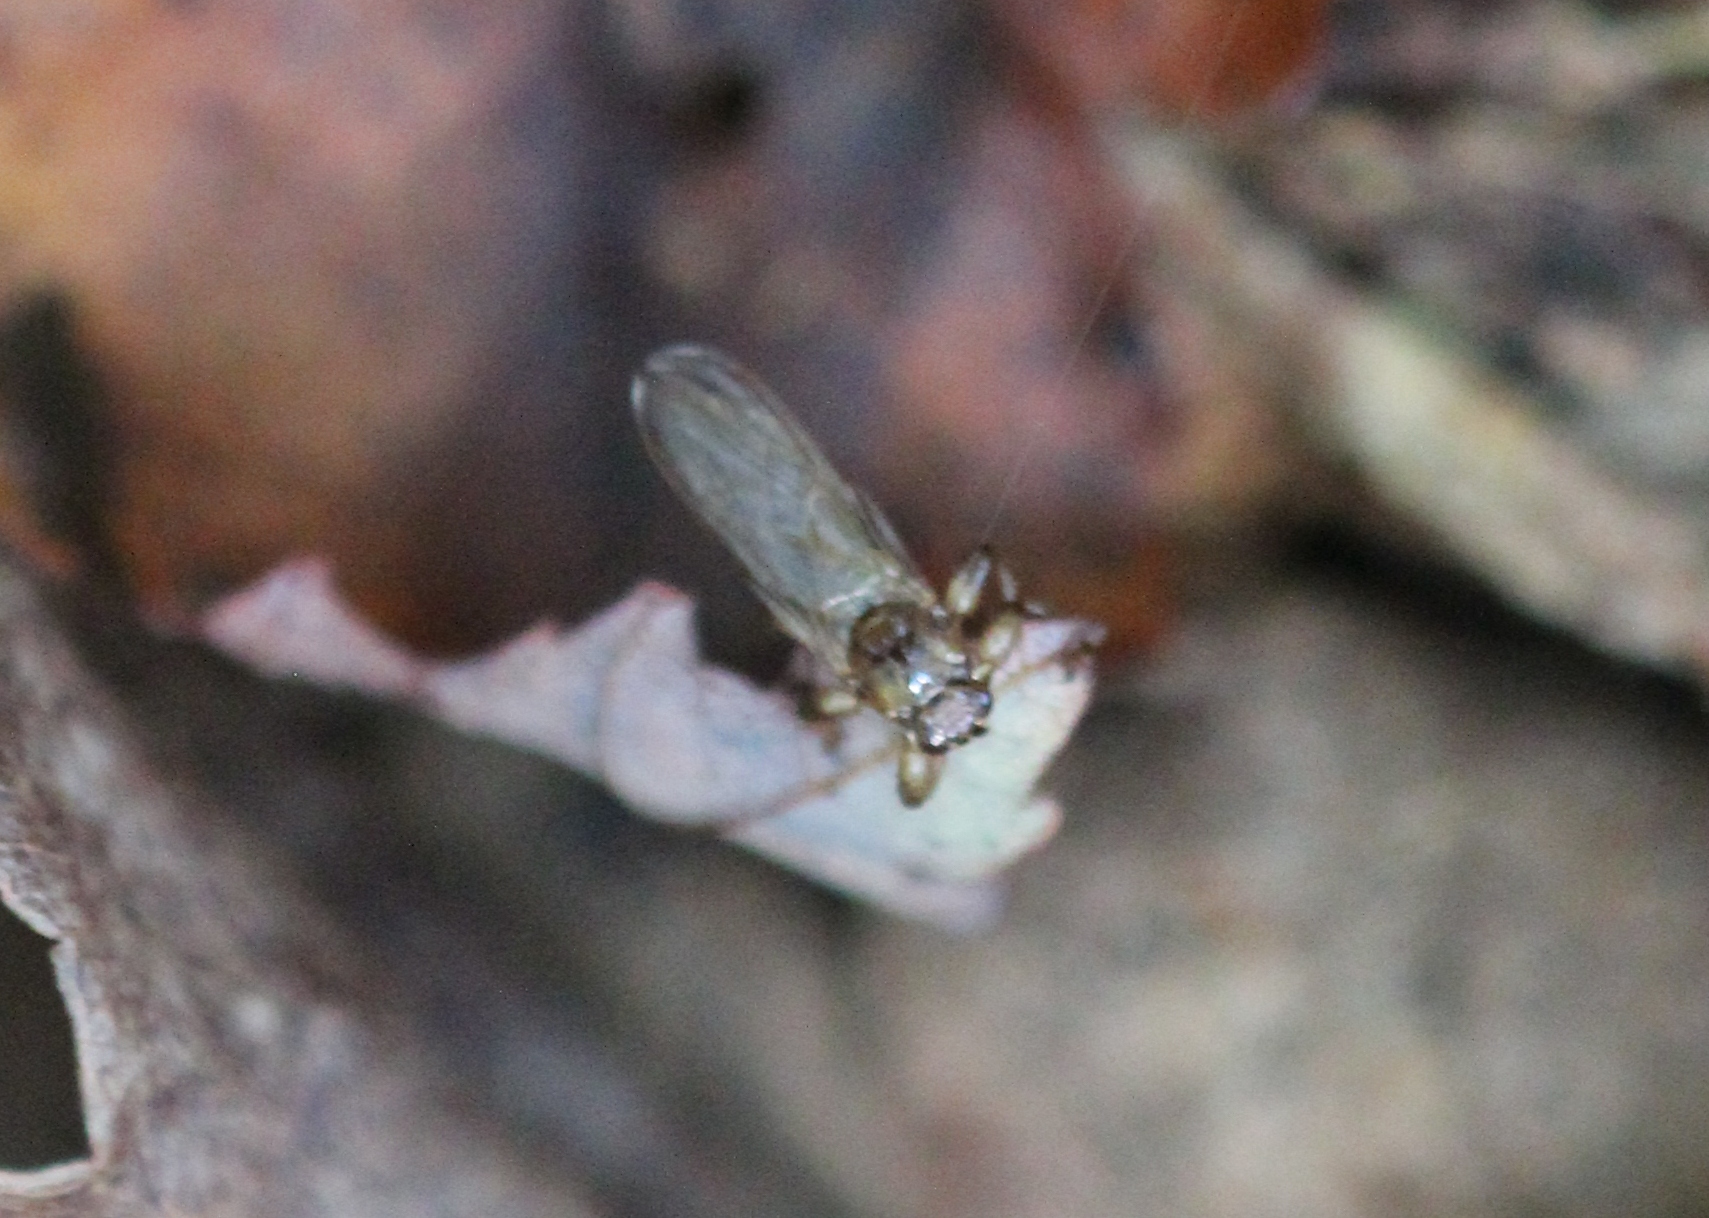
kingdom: Animalia
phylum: Arthropoda
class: Insecta
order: Diptera
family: Hippoboscidae
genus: Lipoptena
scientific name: Lipoptena cervi
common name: Deer ked
